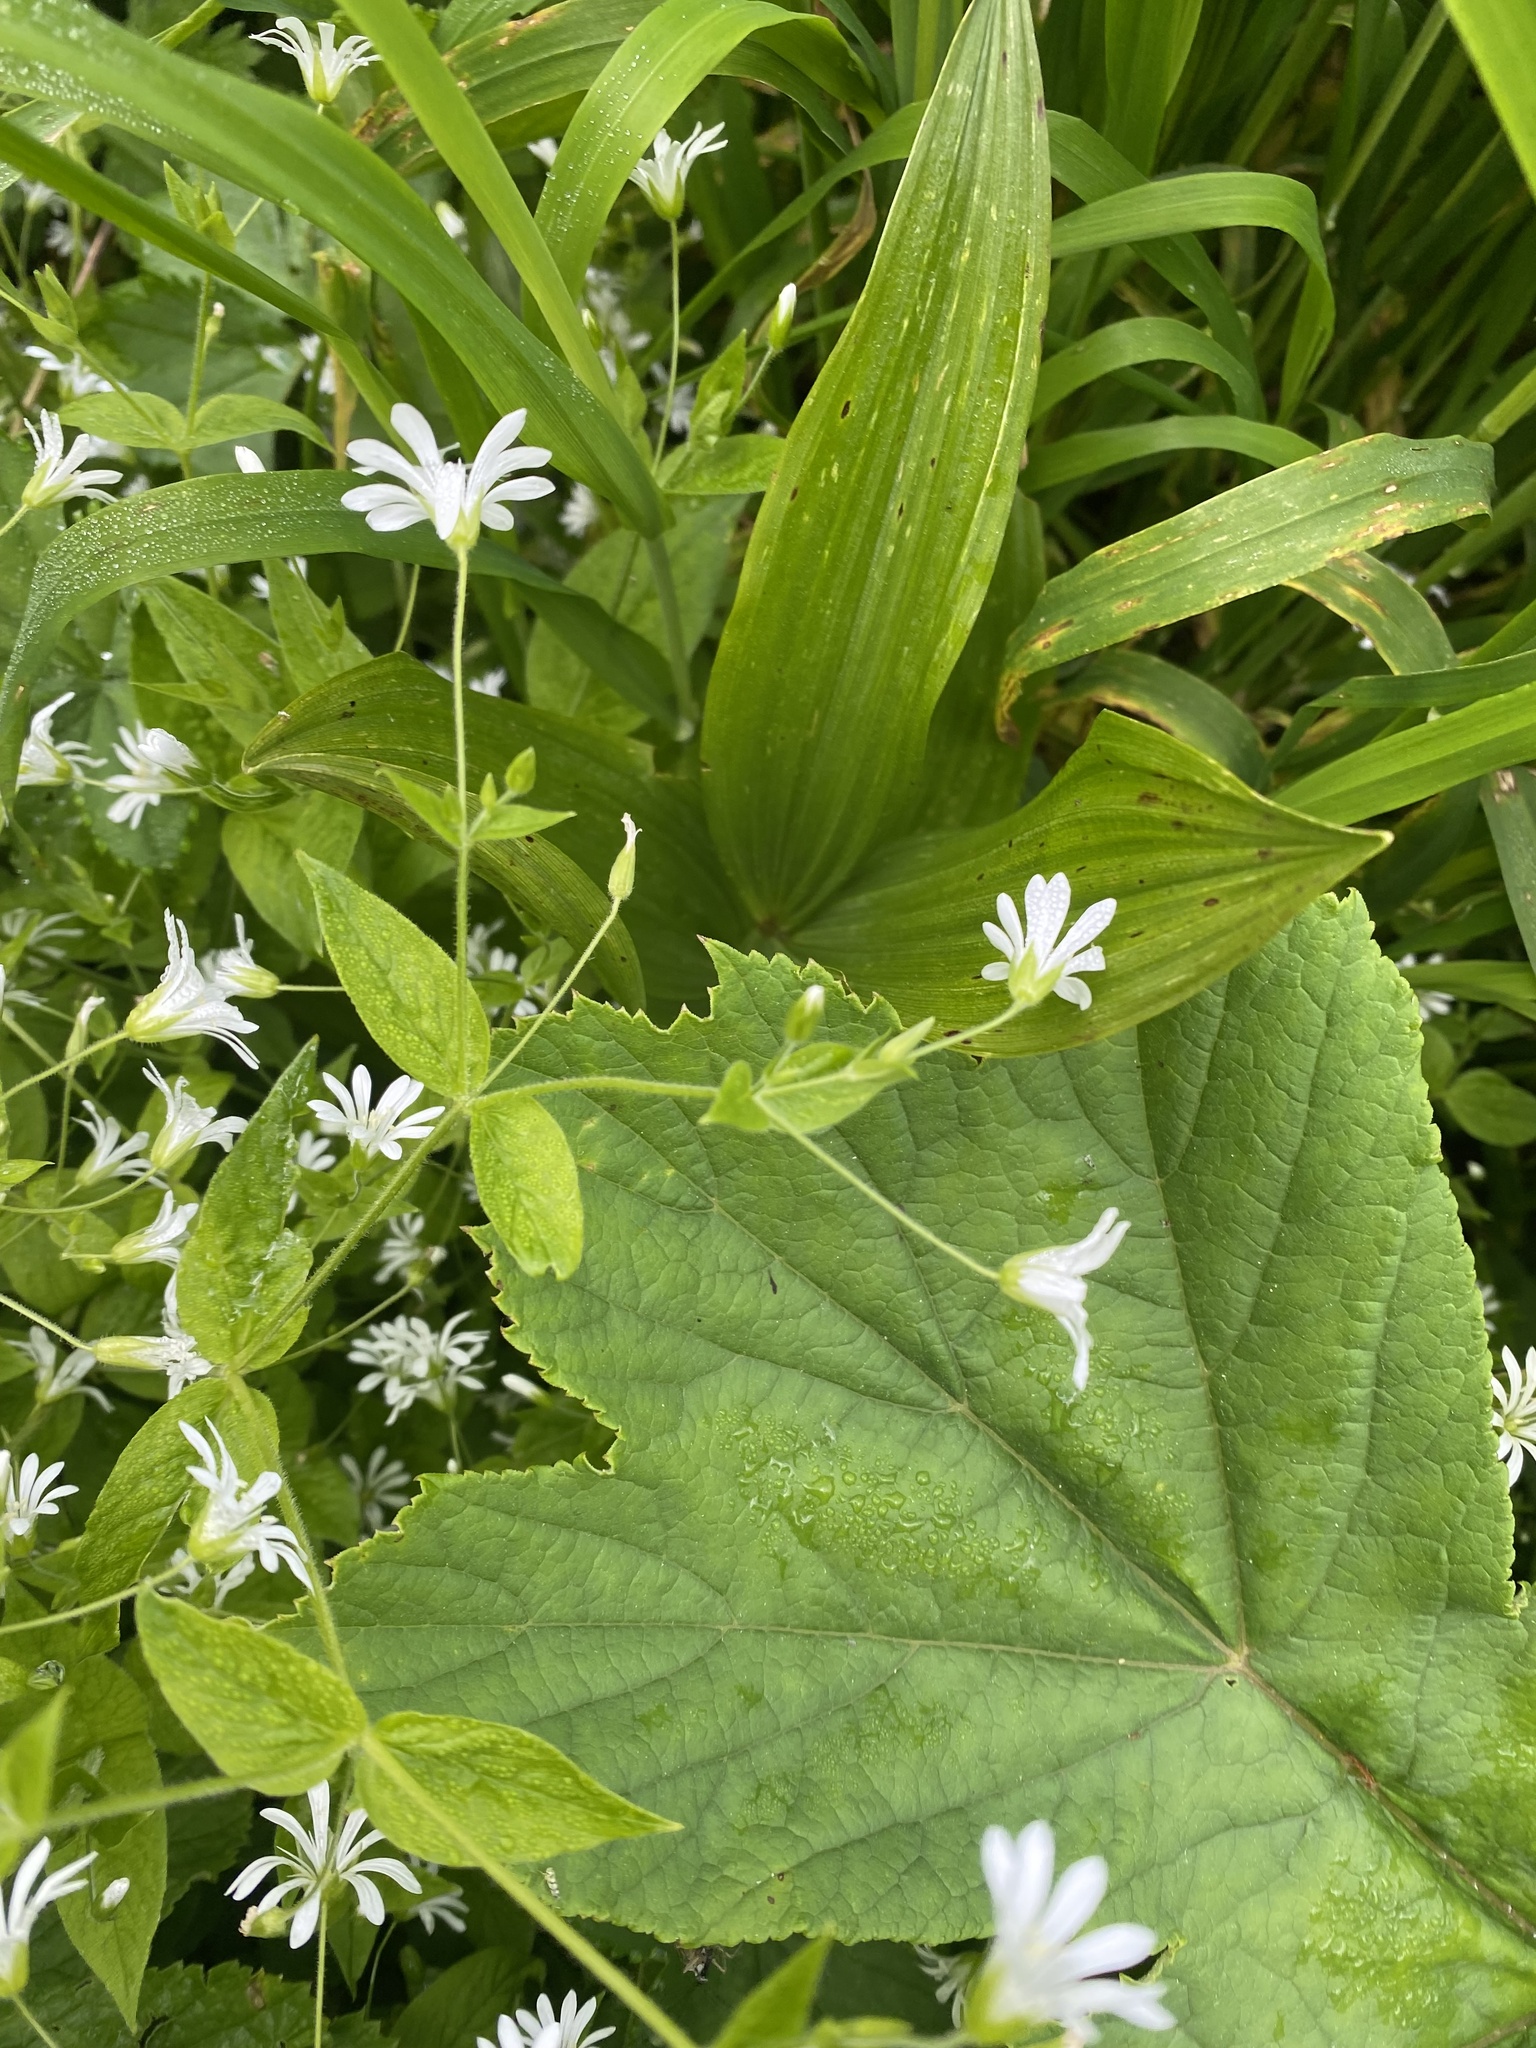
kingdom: Plantae
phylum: Tracheophyta
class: Magnoliopsida
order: Caryophyllales
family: Caryophyllaceae
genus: Stellaria
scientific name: Stellaria nemorum
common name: Wood stitchwort
